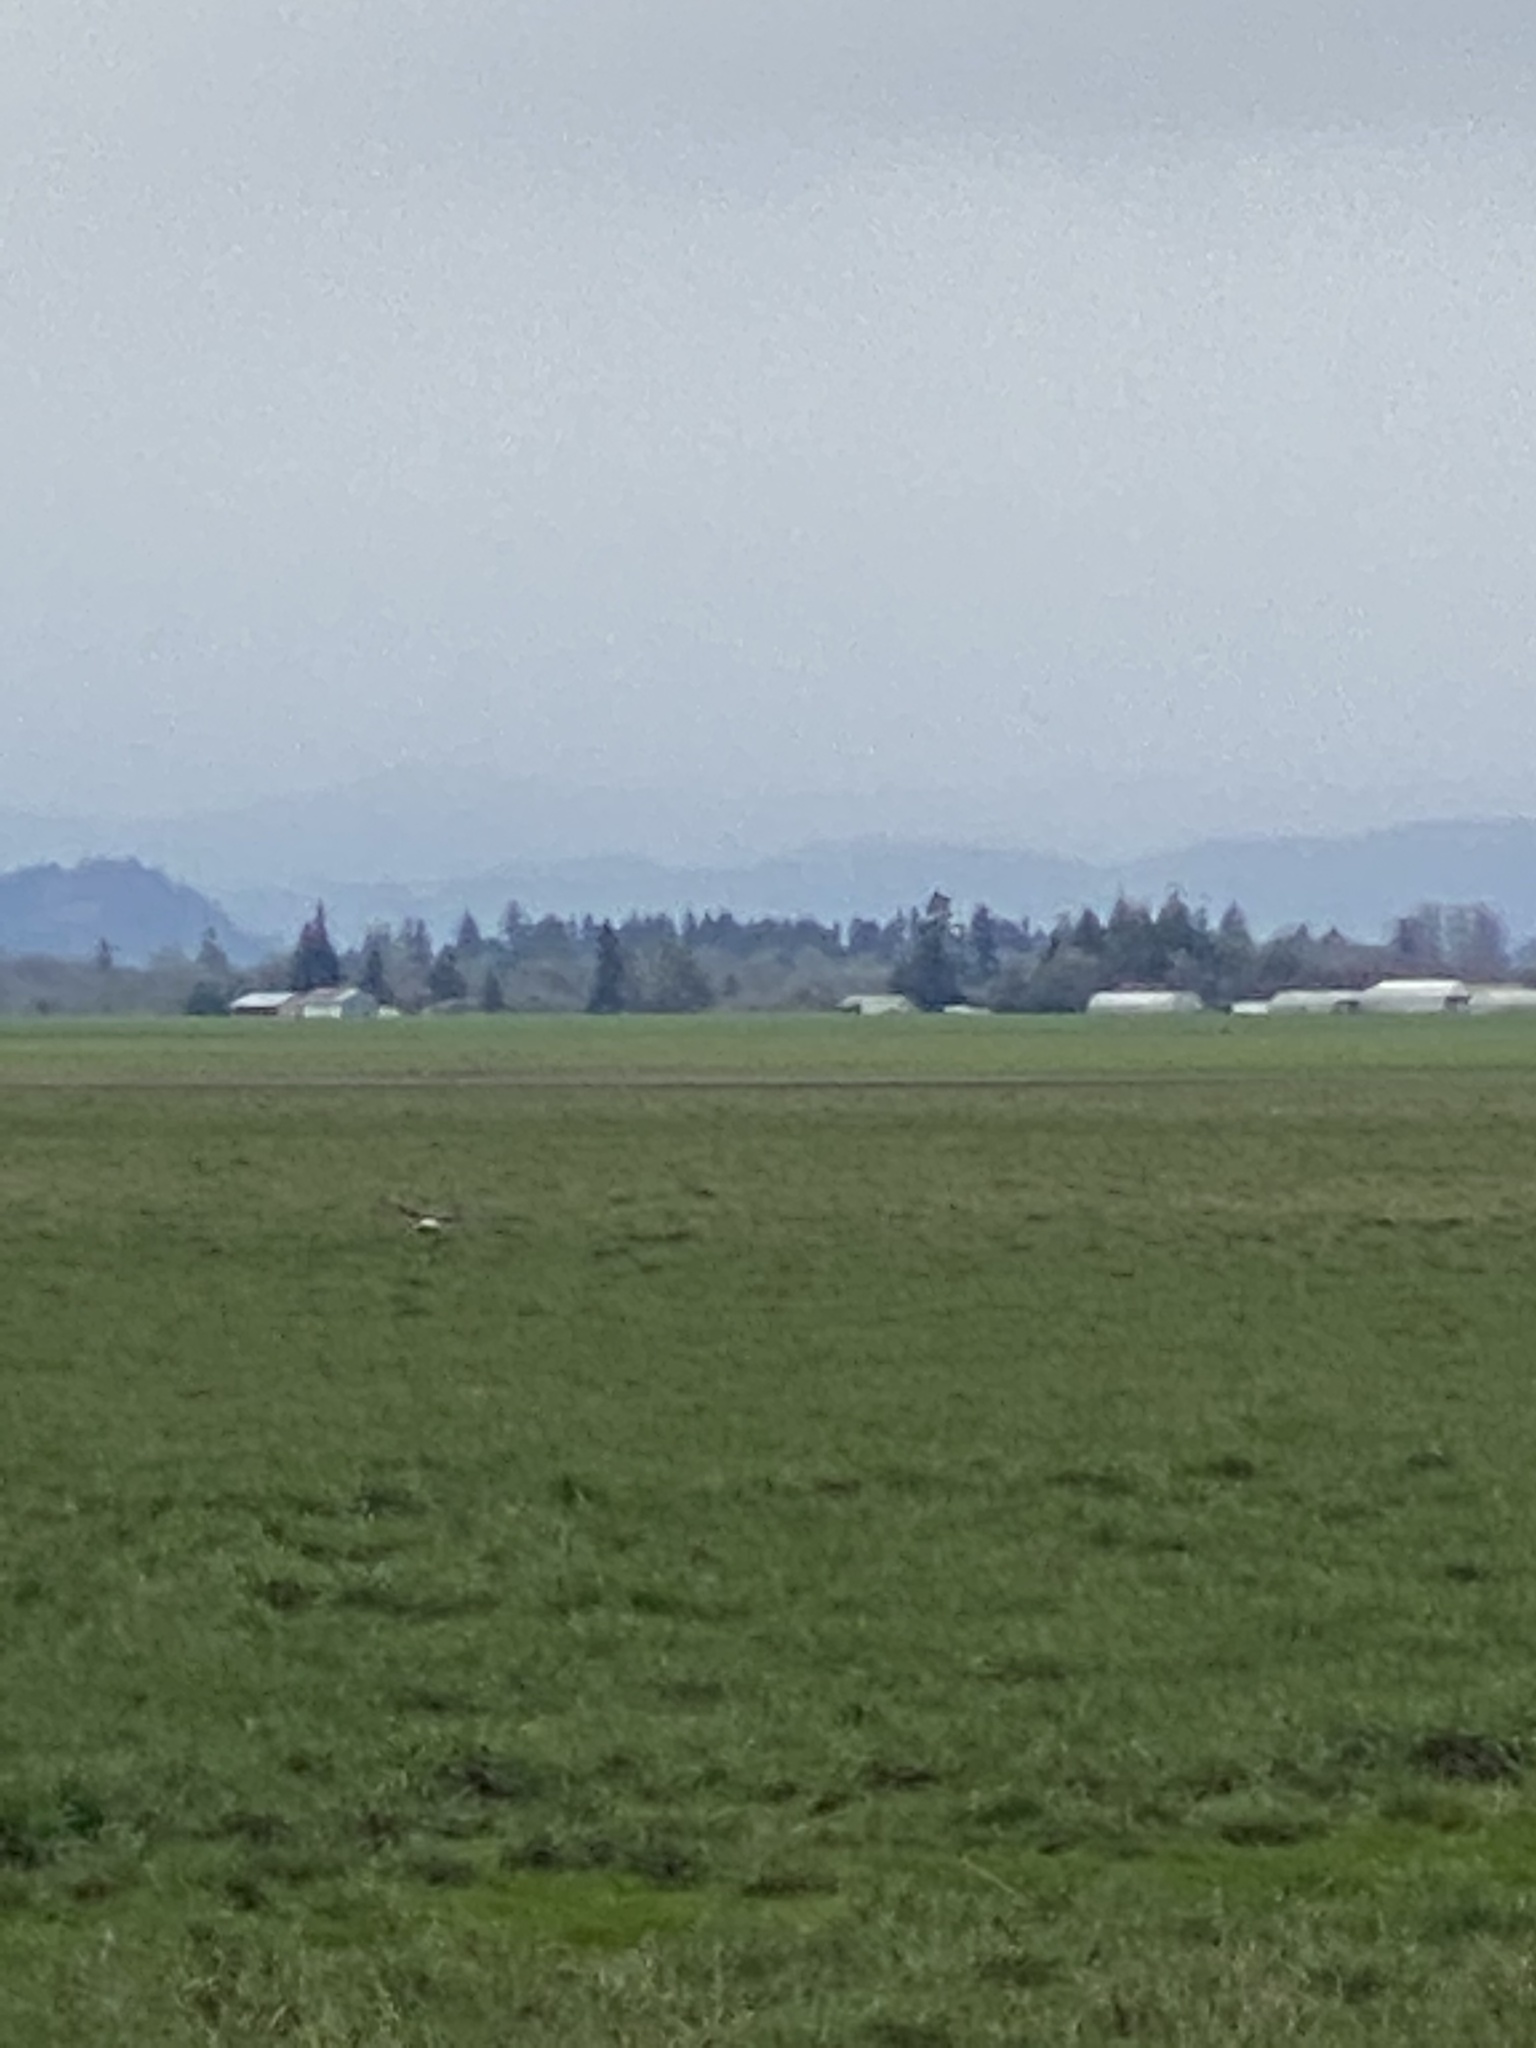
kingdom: Animalia
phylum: Chordata
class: Aves
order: Accipitriformes
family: Accipitridae
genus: Circus
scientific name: Circus cyaneus
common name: Hen harrier
